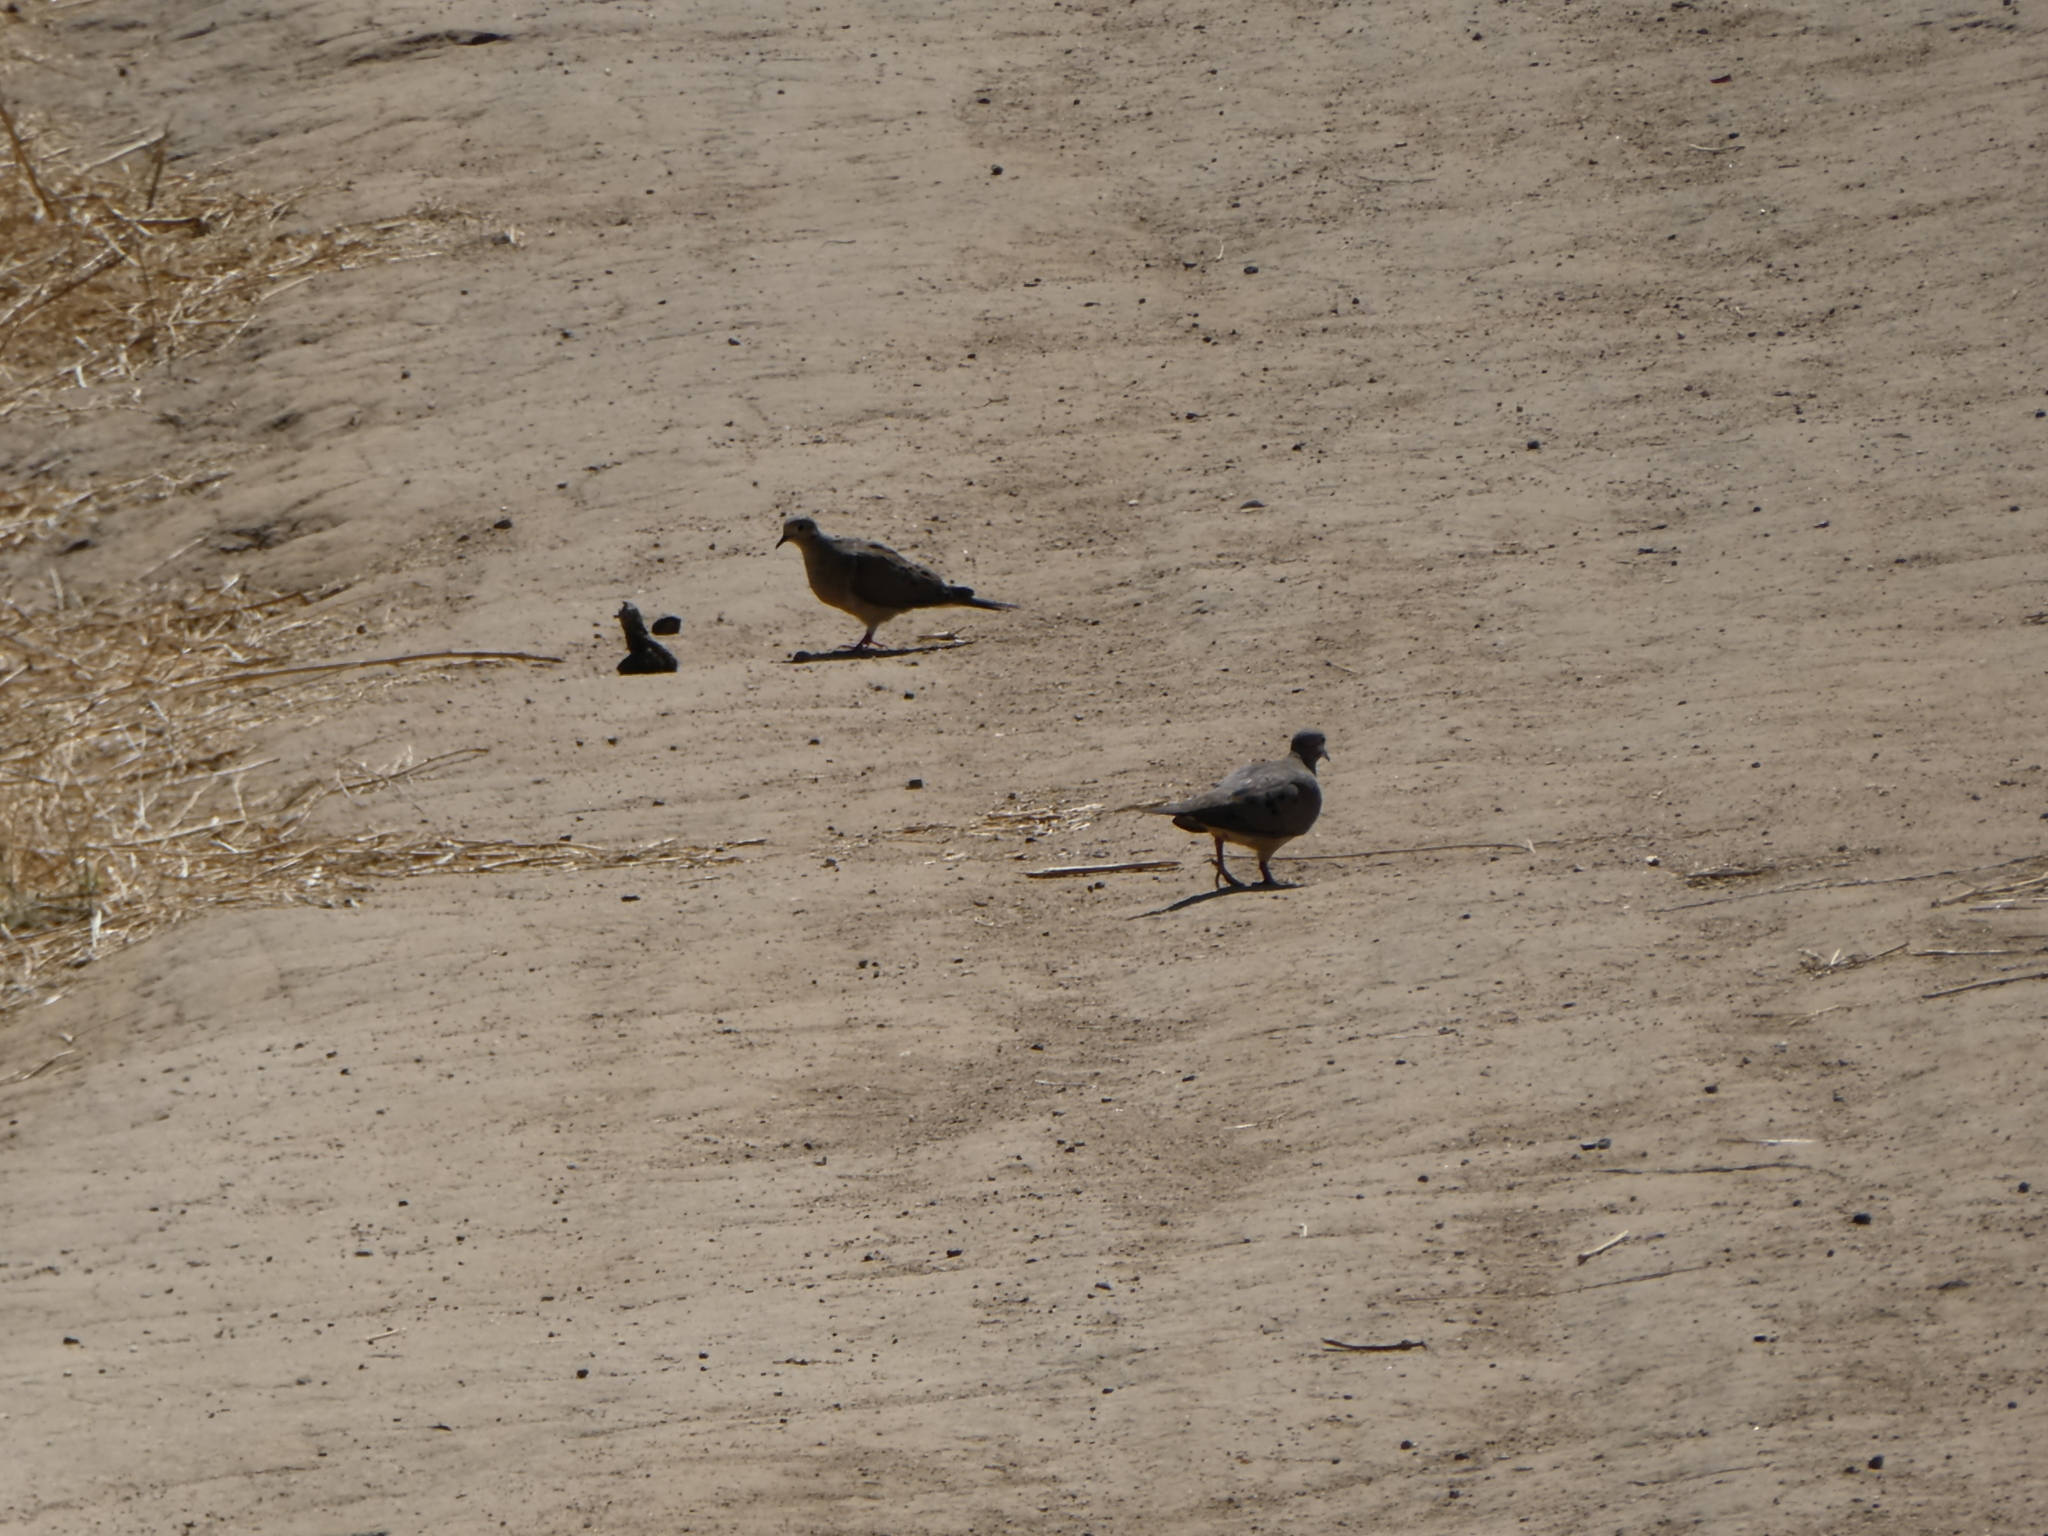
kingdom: Animalia
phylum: Chordata
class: Aves
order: Columbiformes
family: Columbidae
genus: Zenaida
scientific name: Zenaida macroura
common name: Mourning dove
